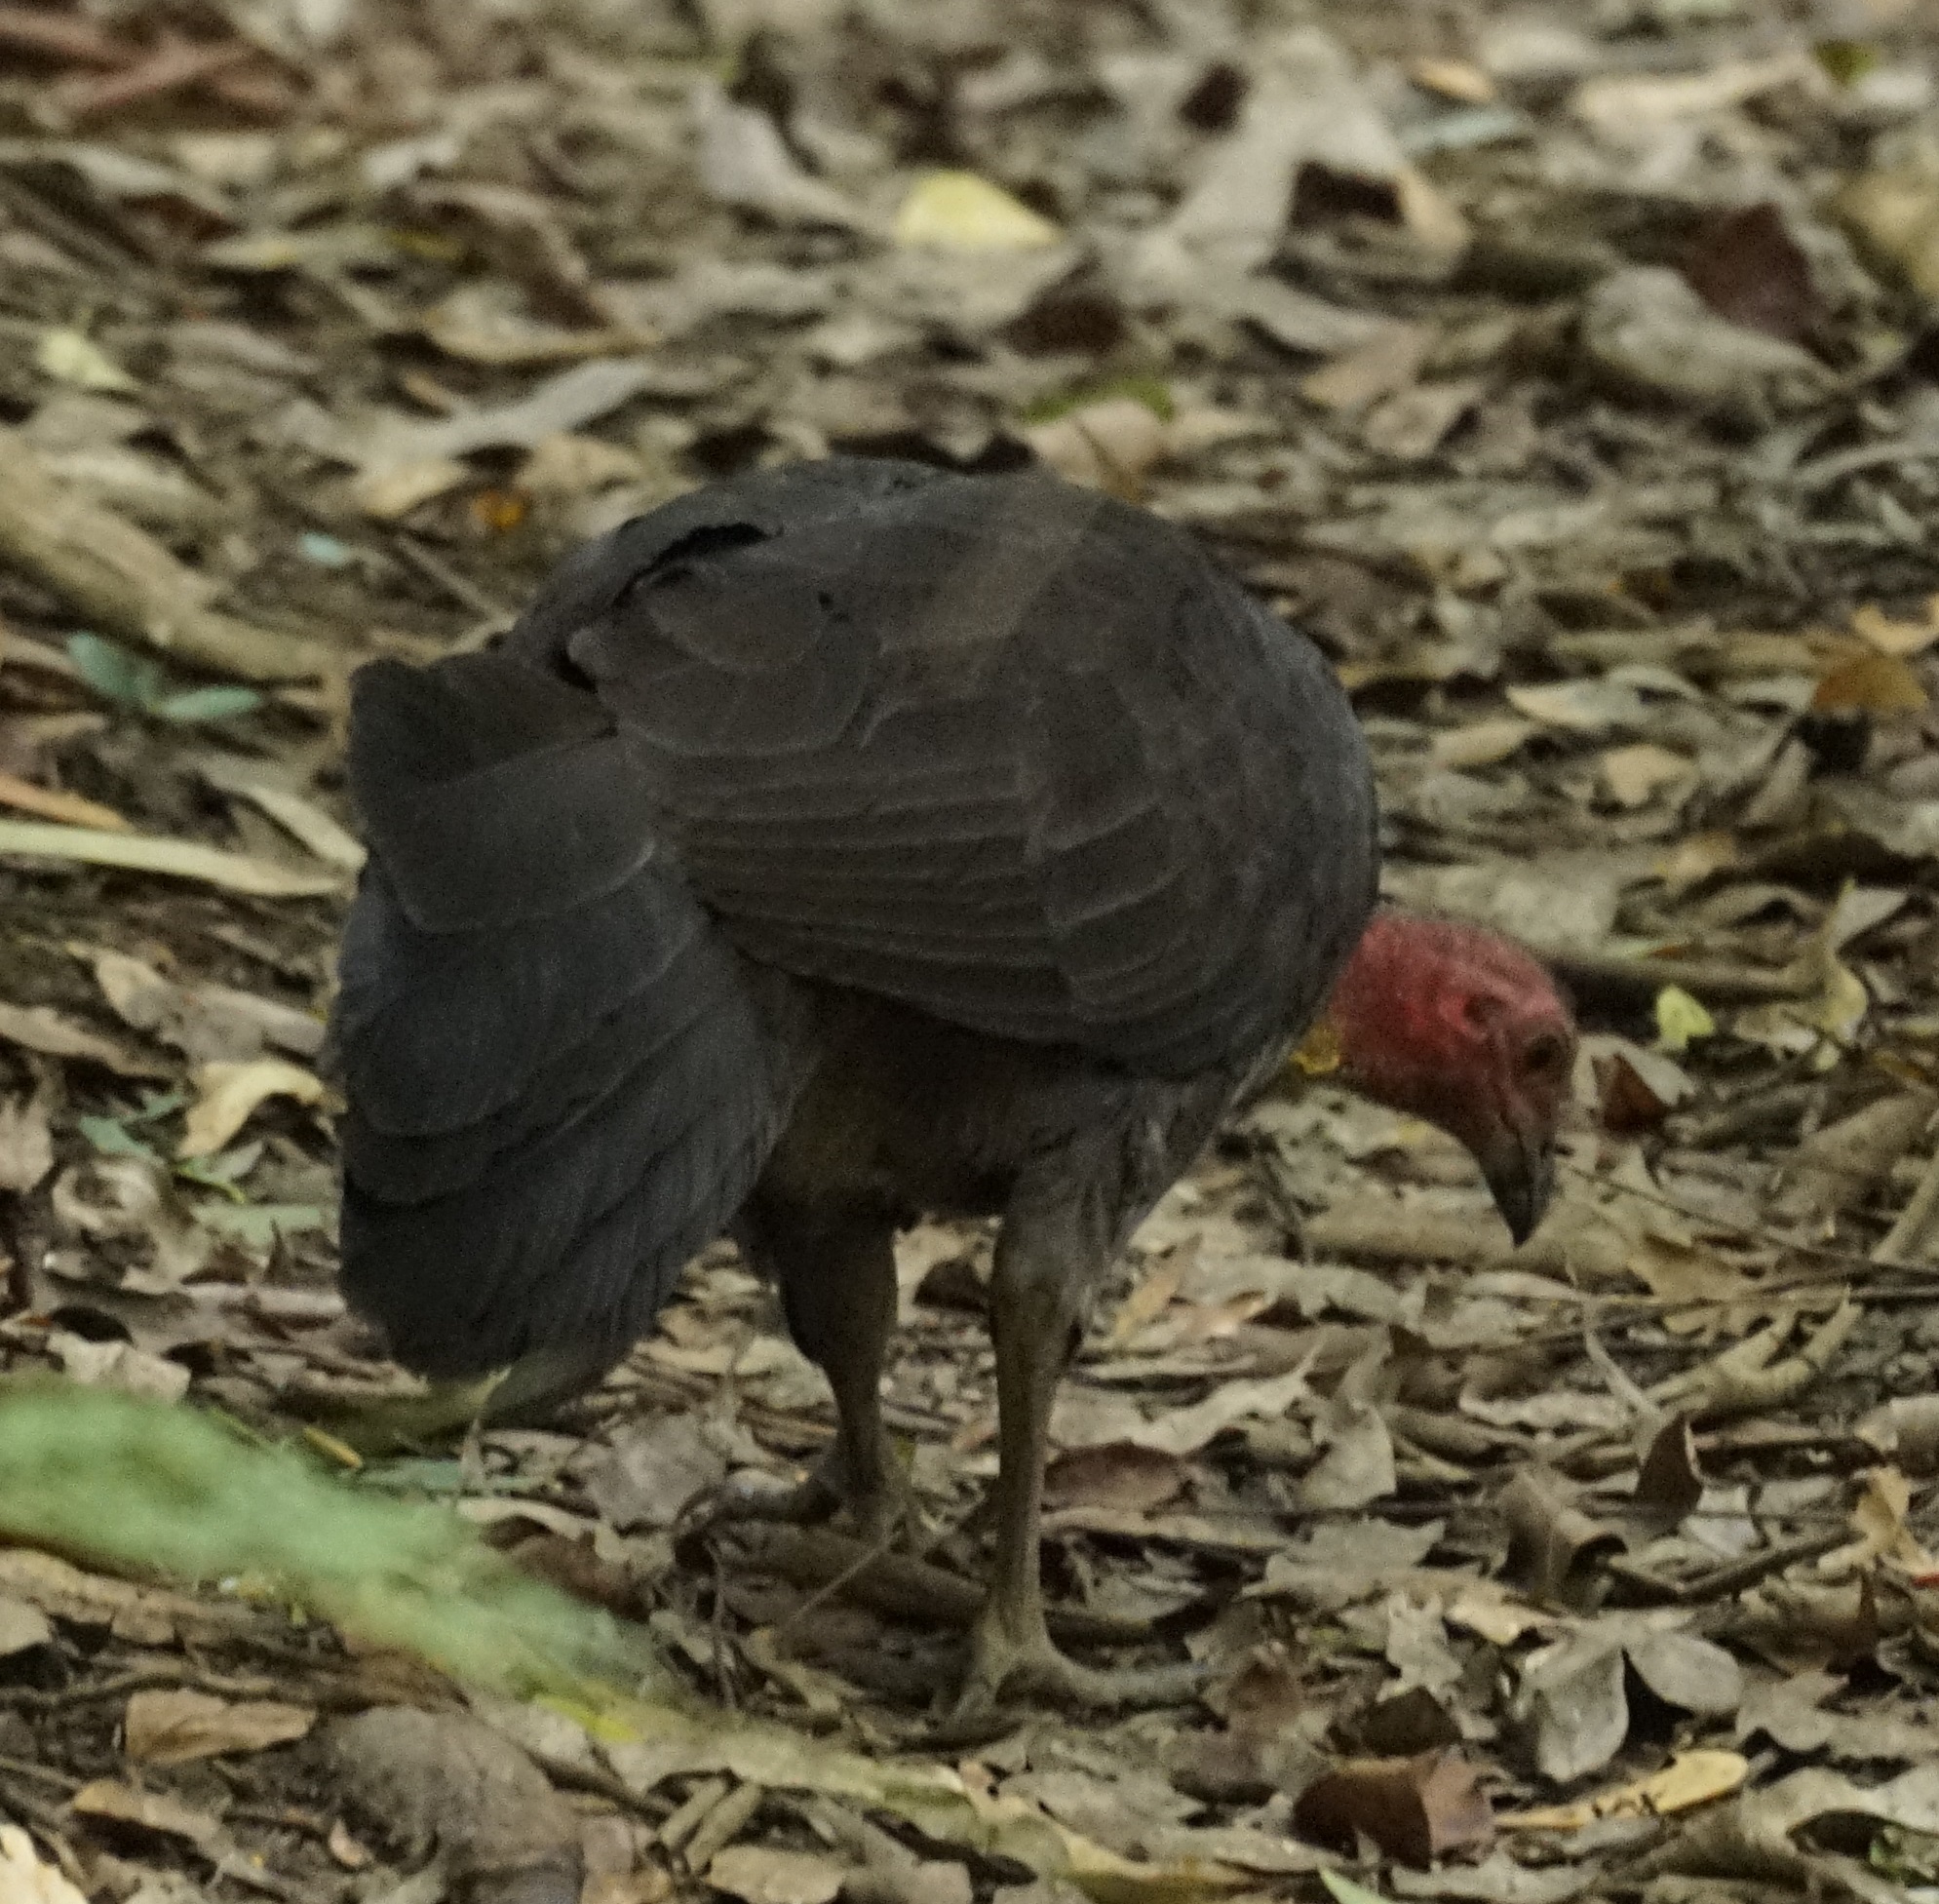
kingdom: Animalia
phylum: Chordata
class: Aves
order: Galliformes
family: Megapodiidae
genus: Alectura
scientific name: Alectura lathami
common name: Australian brushturkey
